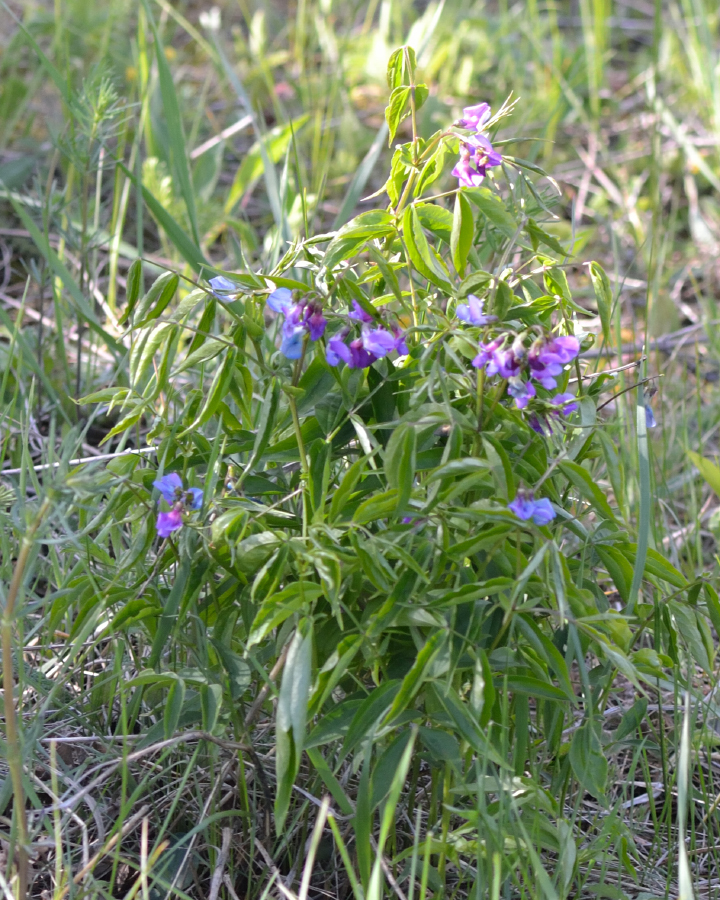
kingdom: Plantae
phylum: Tracheophyta
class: Magnoliopsida
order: Fabales
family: Fabaceae
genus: Lathyrus
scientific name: Lathyrus vernus
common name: Spring pea
